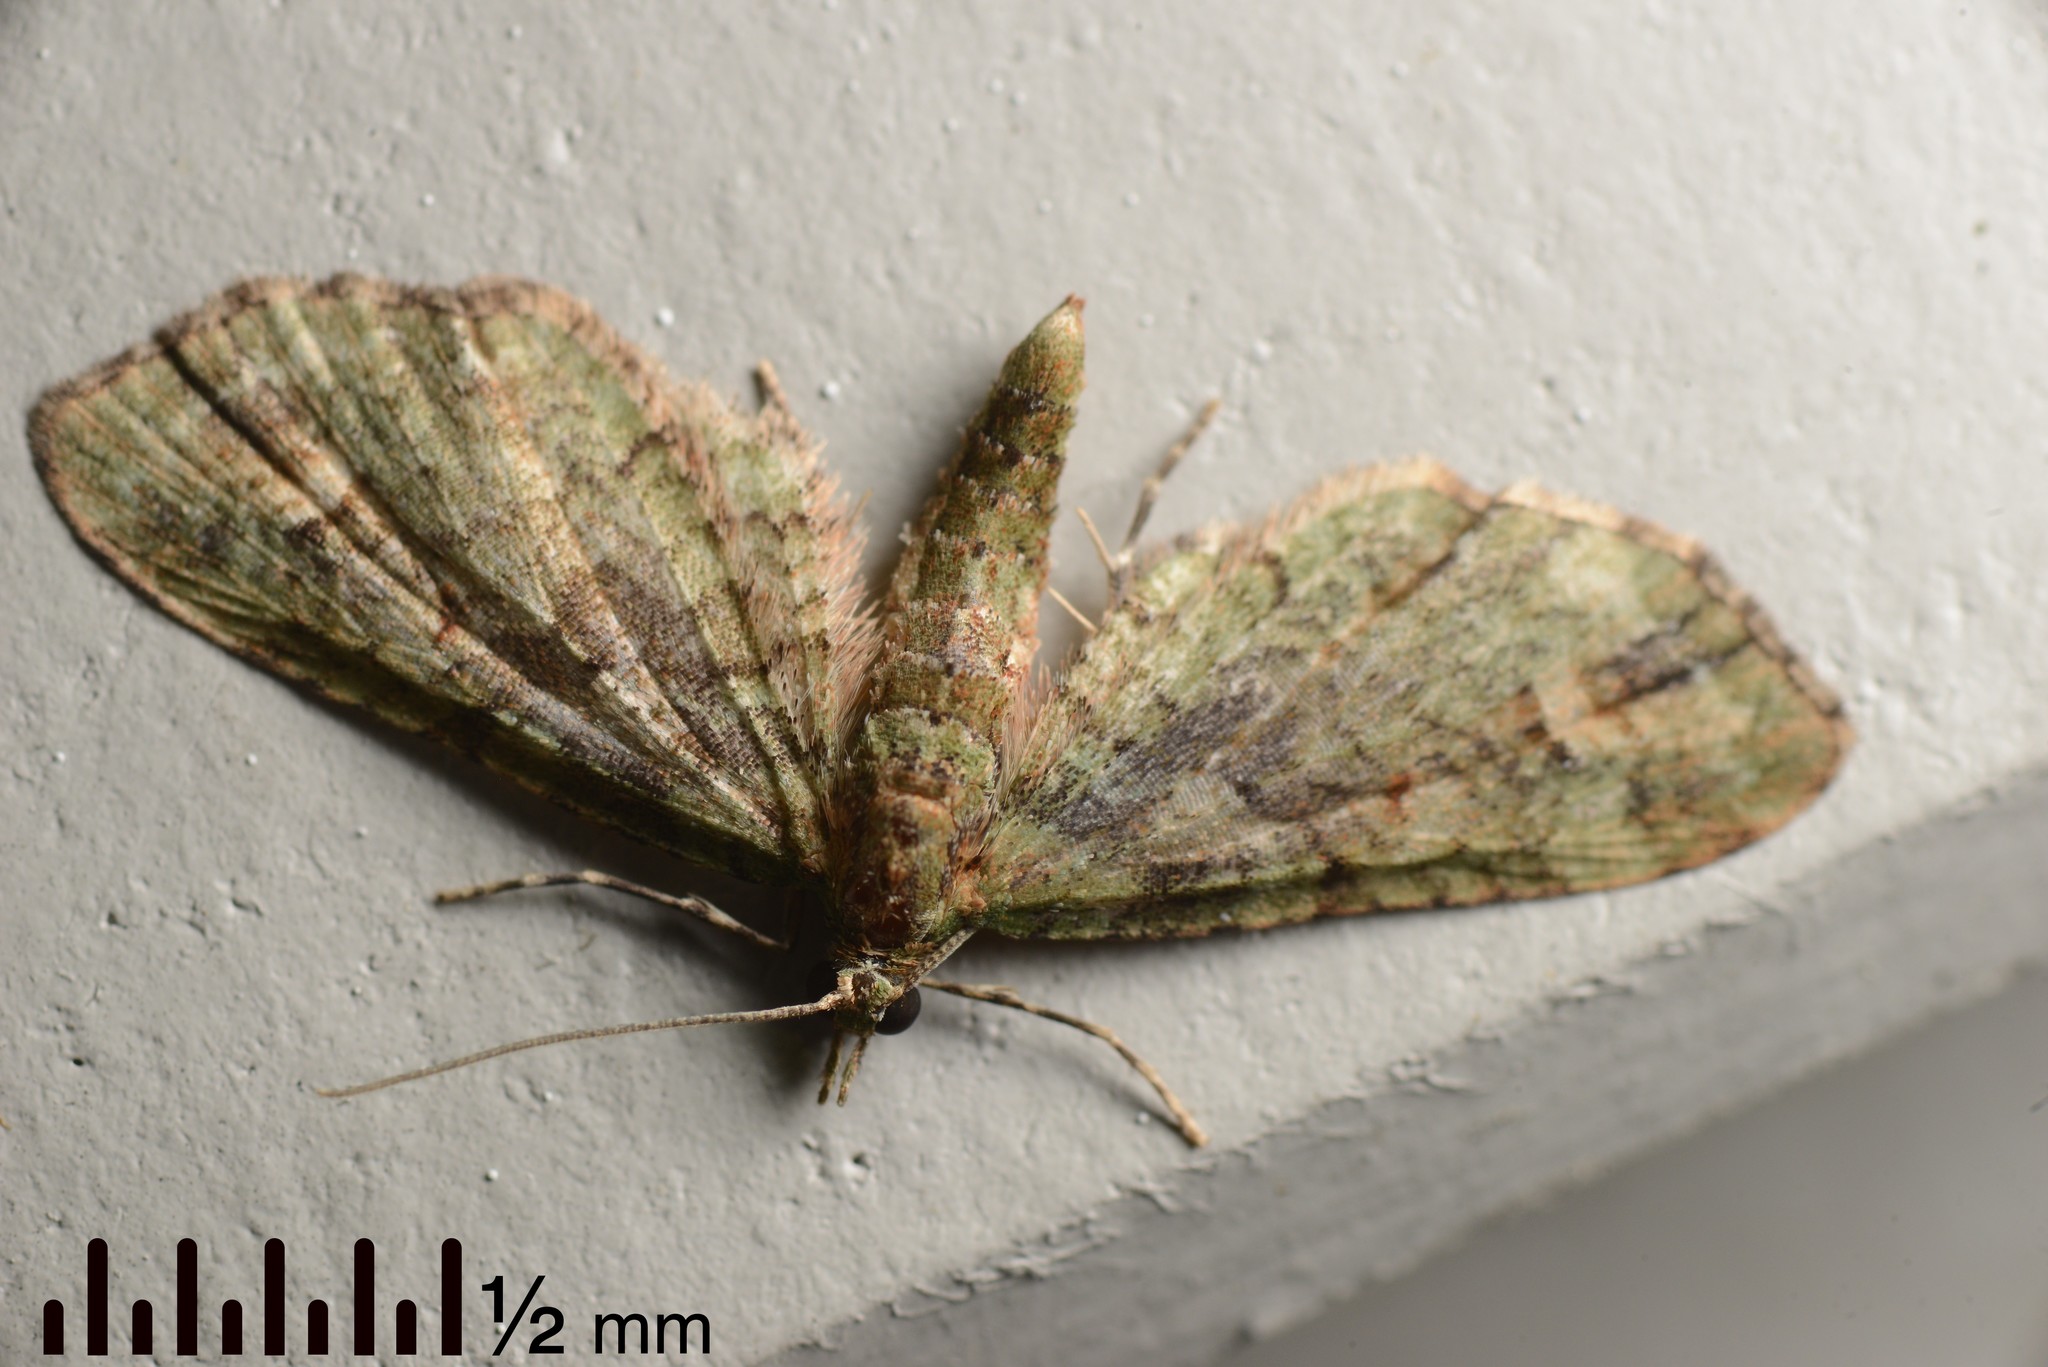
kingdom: Animalia
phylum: Arthropoda
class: Insecta
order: Lepidoptera
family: Geometridae
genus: Idaea
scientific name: Idaea mutanda
